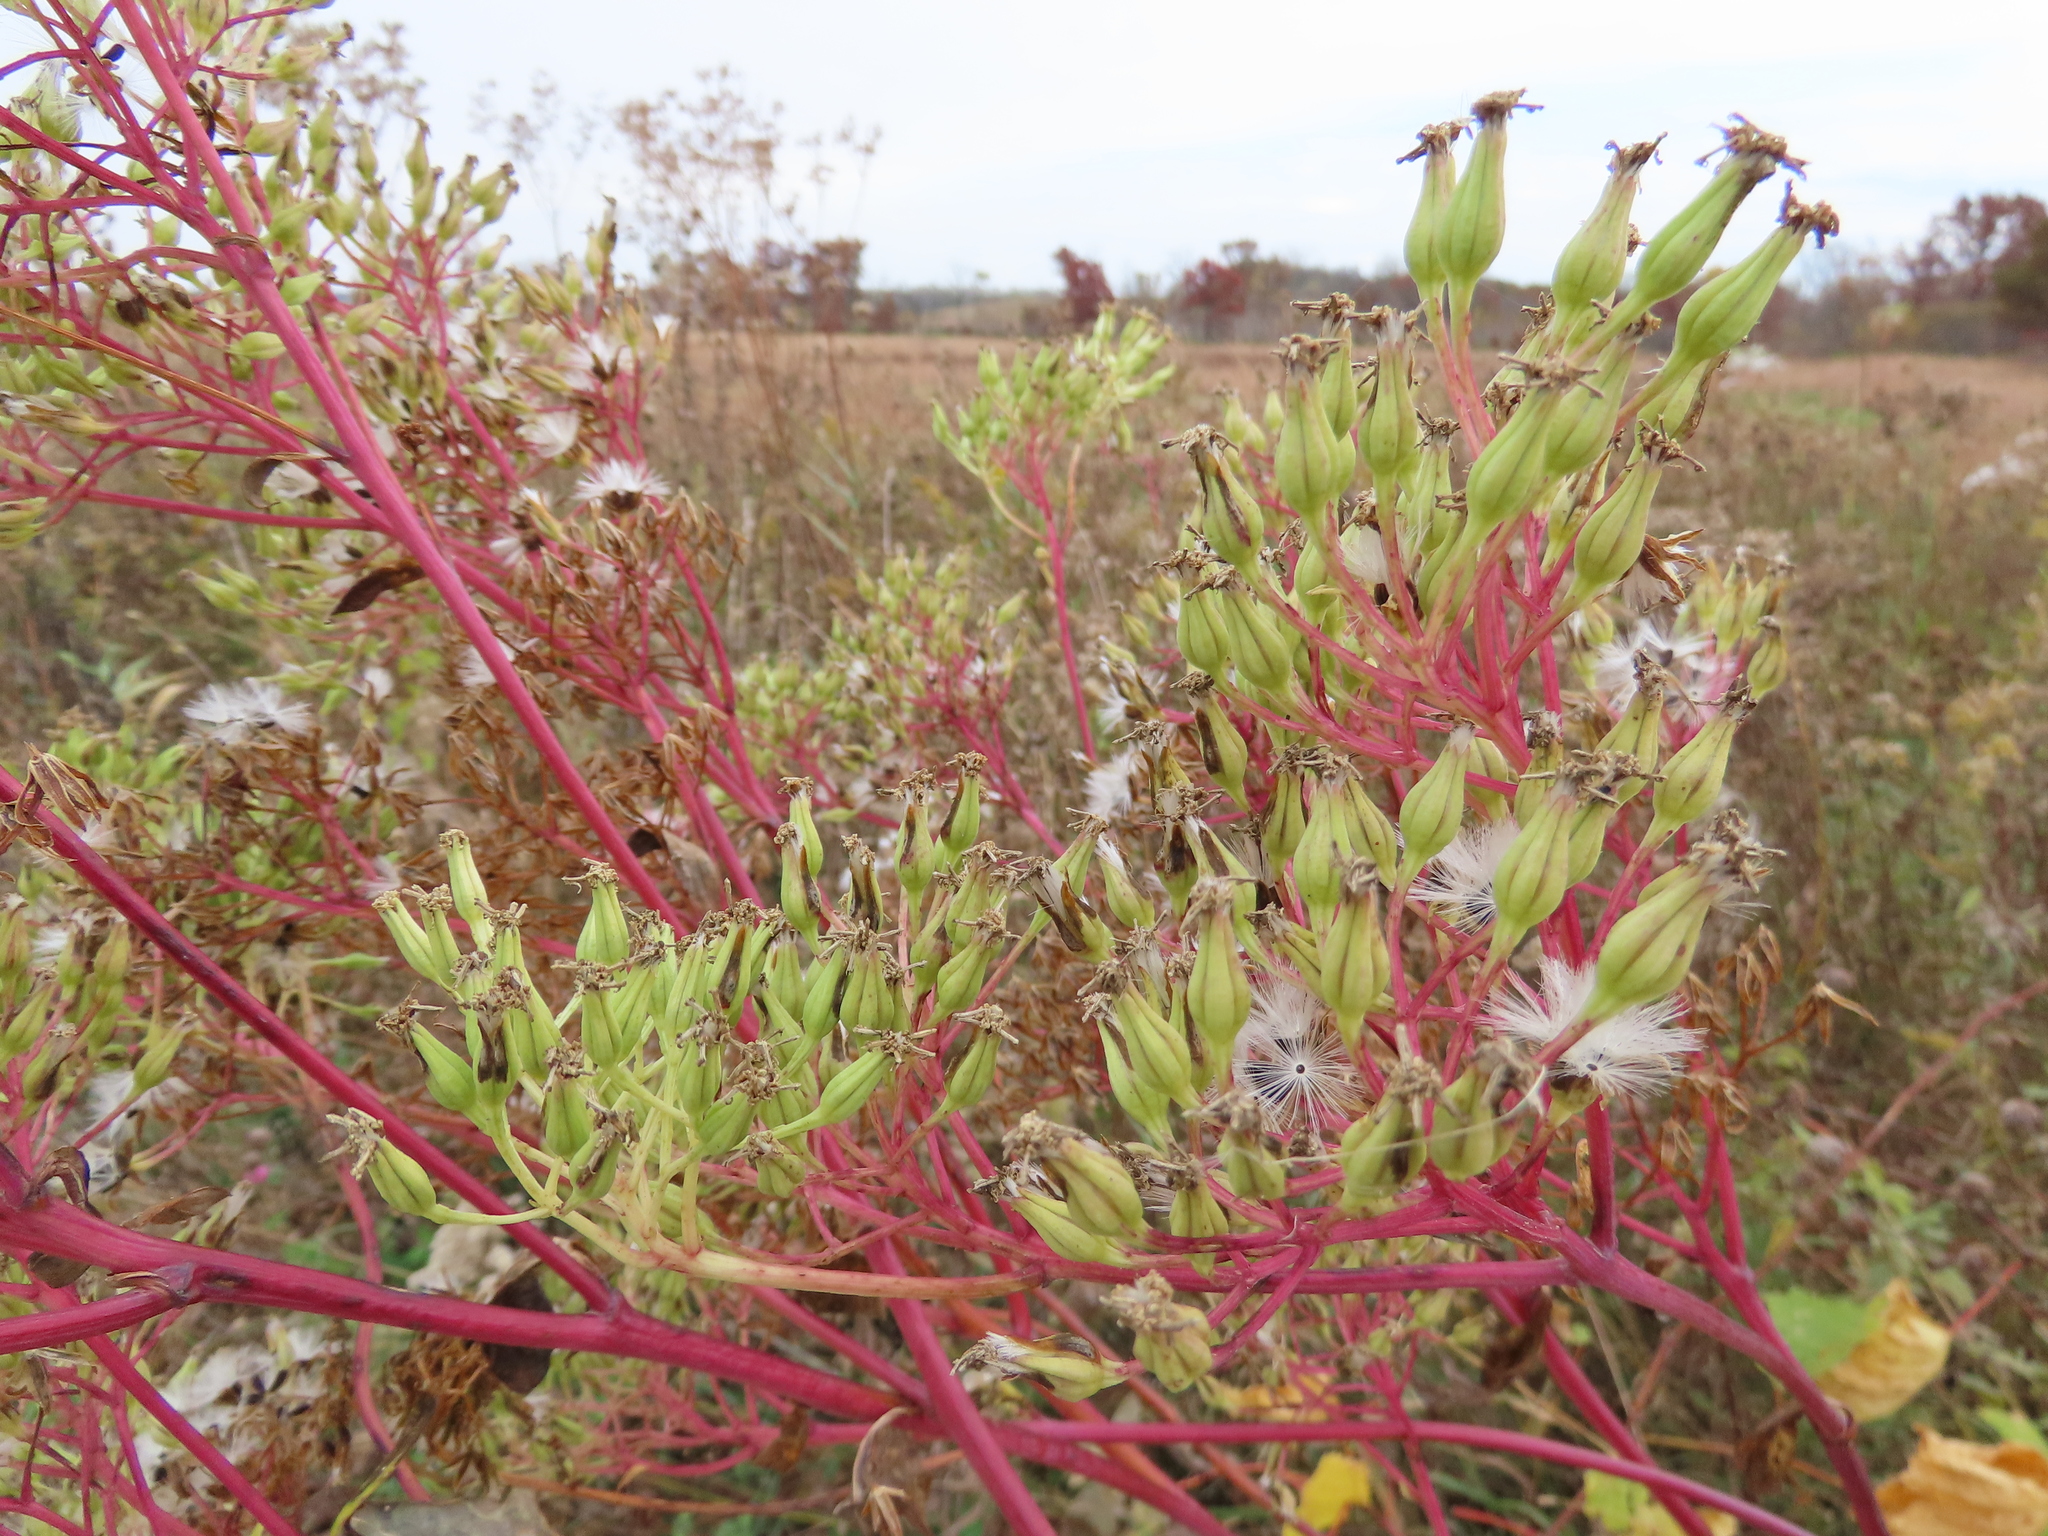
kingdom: Plantae
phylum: Tracheophyta
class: Magnoliopsida
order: Asterales
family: Asteraceae
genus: Arnoglossum
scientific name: Arnoglossum atriplicifolium
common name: Pale indian-plantain
